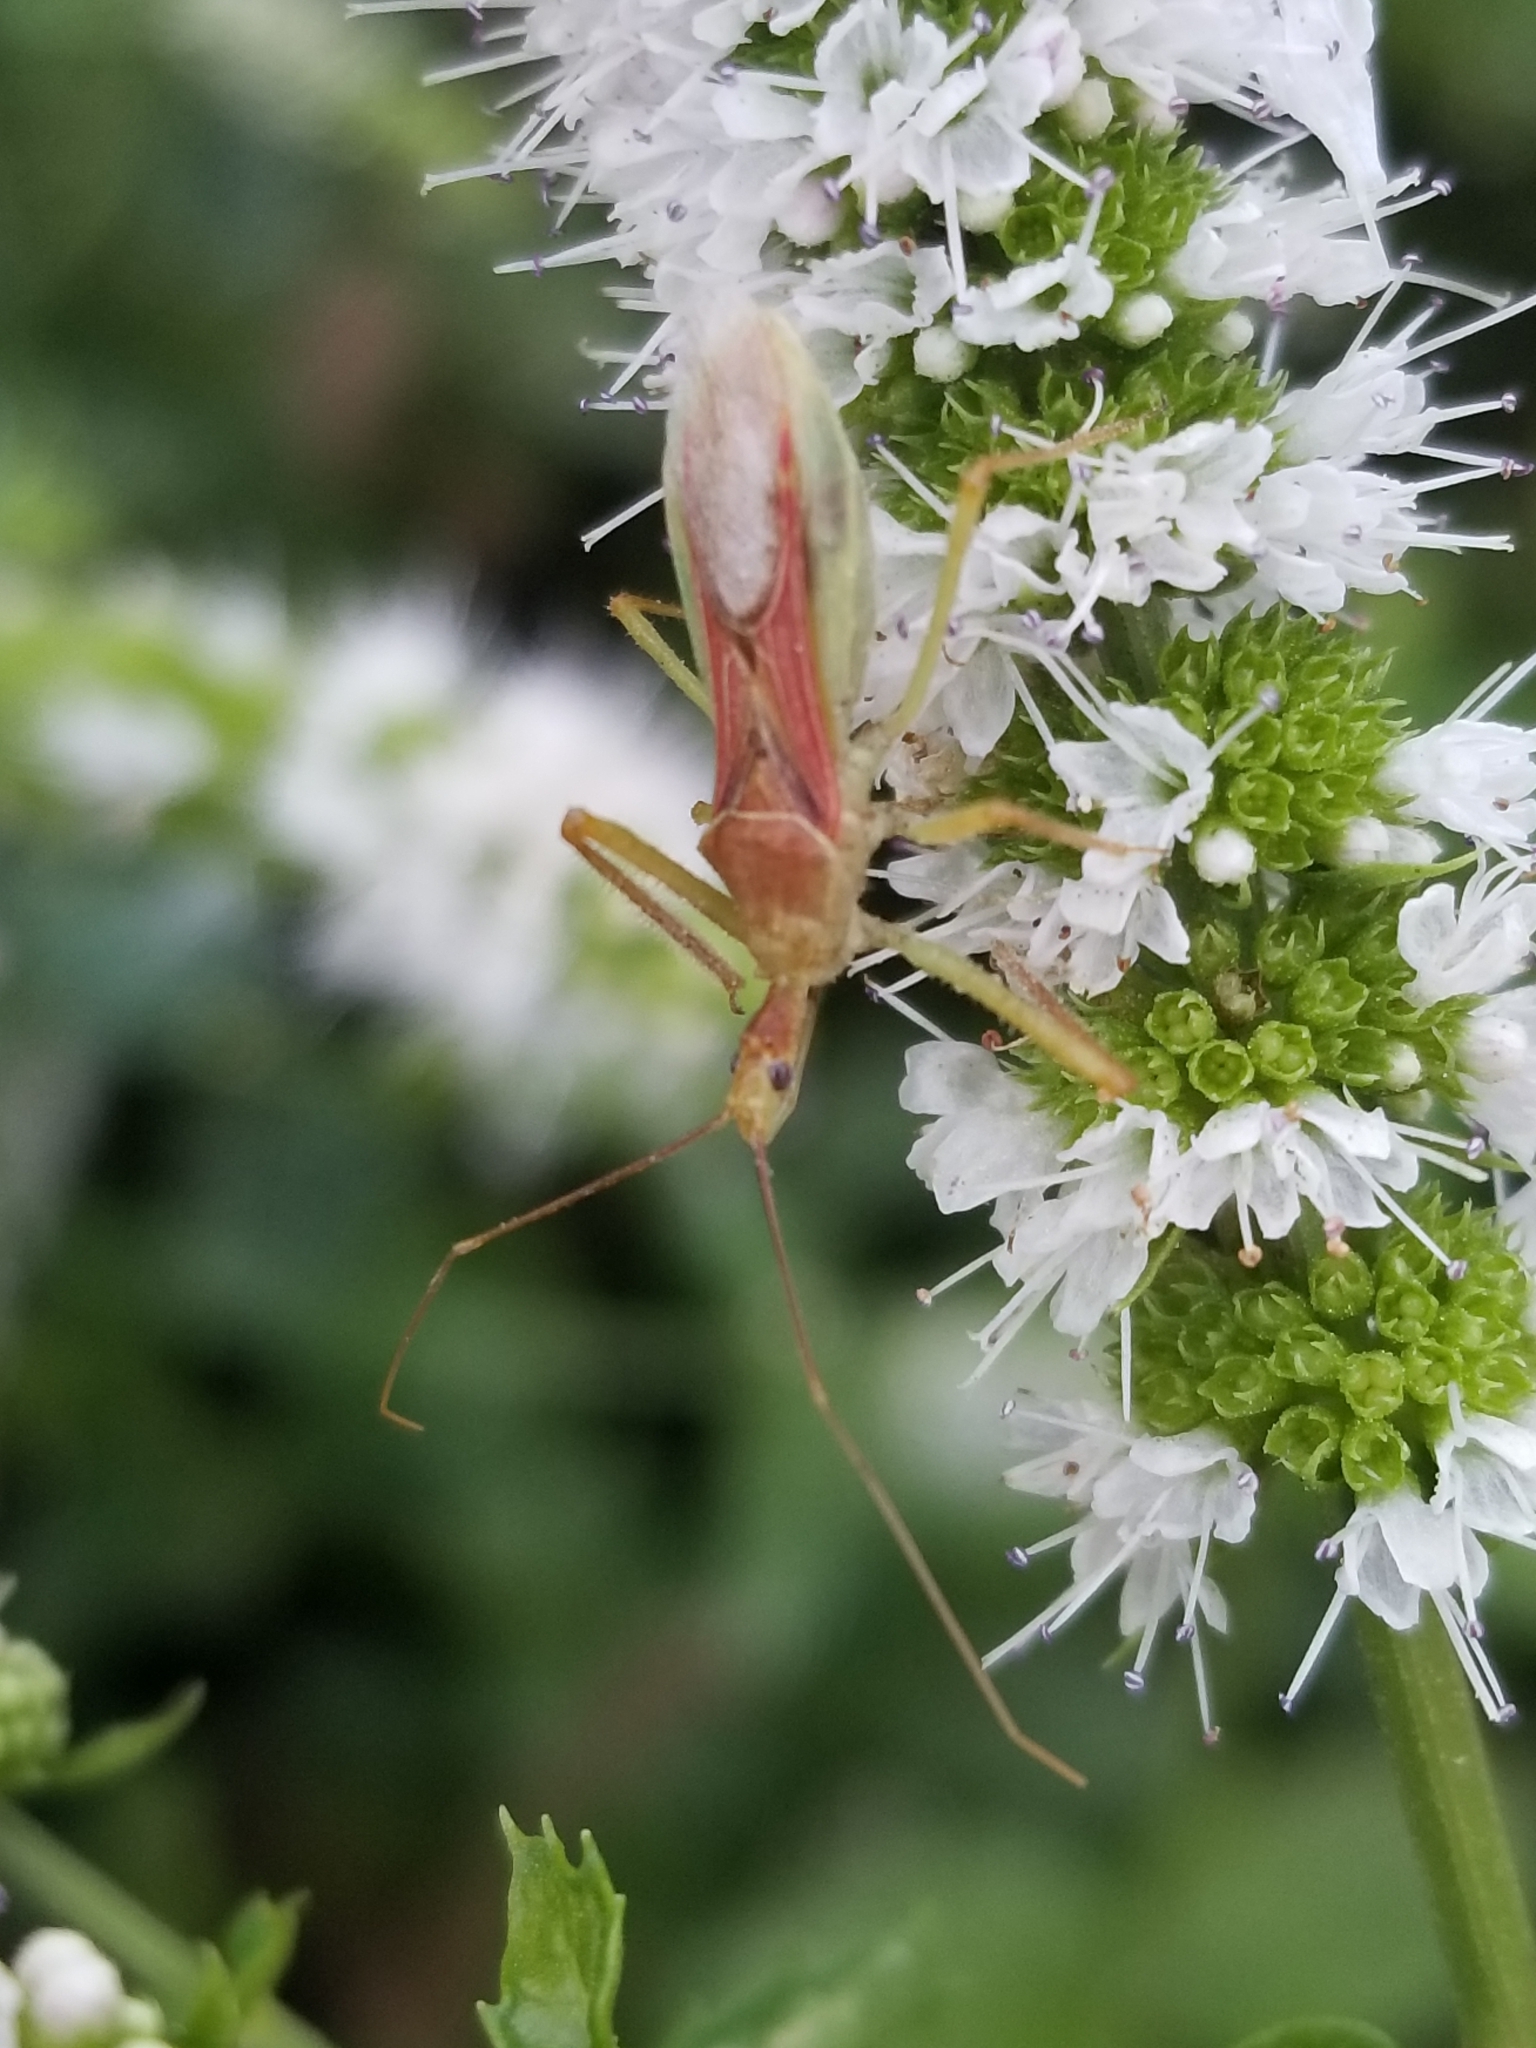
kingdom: Animalia
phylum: Arthropoda
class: Insecta
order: Hemiptera
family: Reduviidae
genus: Zelus
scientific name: Zelus renardii
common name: Assassin bug
